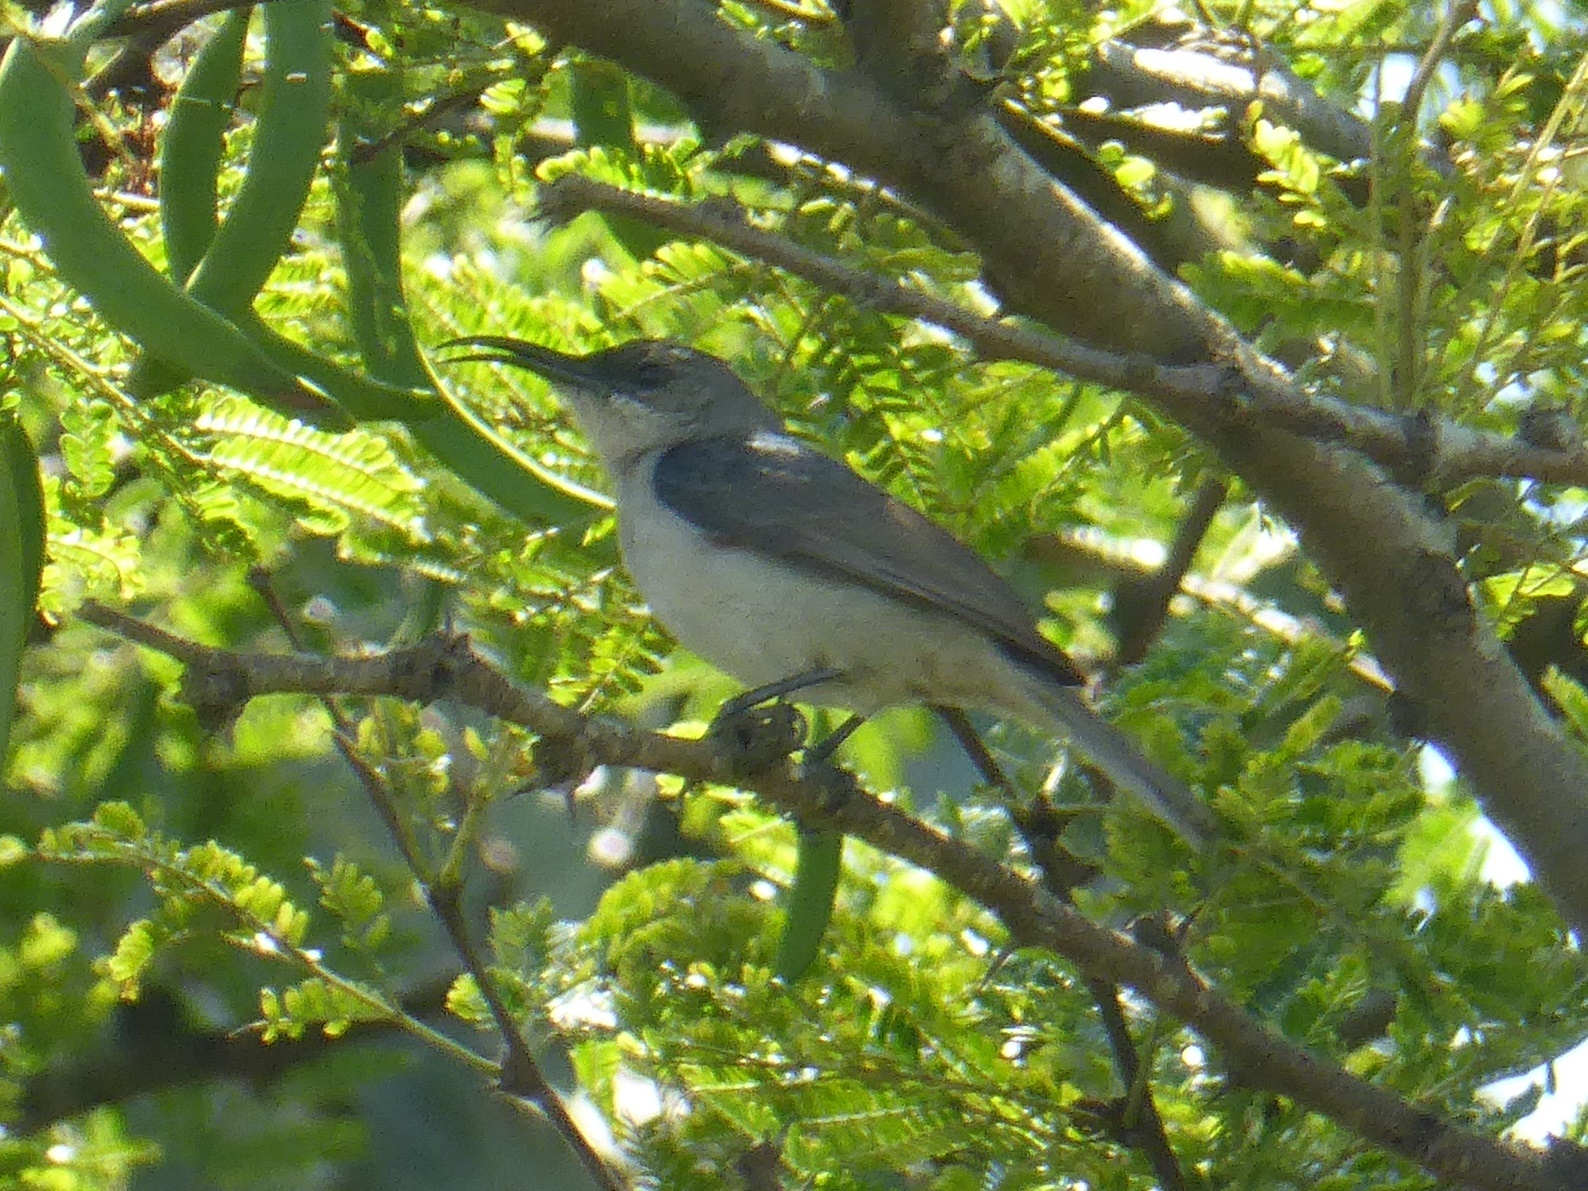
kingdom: Animalia
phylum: Chordata
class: Aves
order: Passeriformes
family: Nectariniidae
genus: Cyanomitra
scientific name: Cyanomitra veroxii
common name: Grey sunbird
